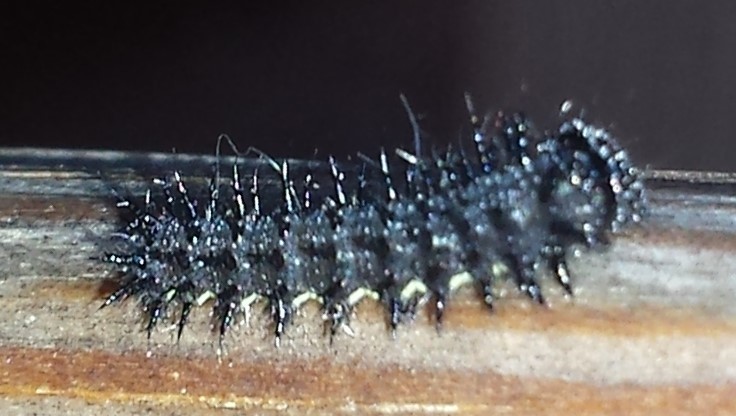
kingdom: Animalia
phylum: Arthropoda
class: Insecta
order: Lepidoptera
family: Nymphalidae
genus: Vanessa
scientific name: Vanessa atalanta
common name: Red admiral
